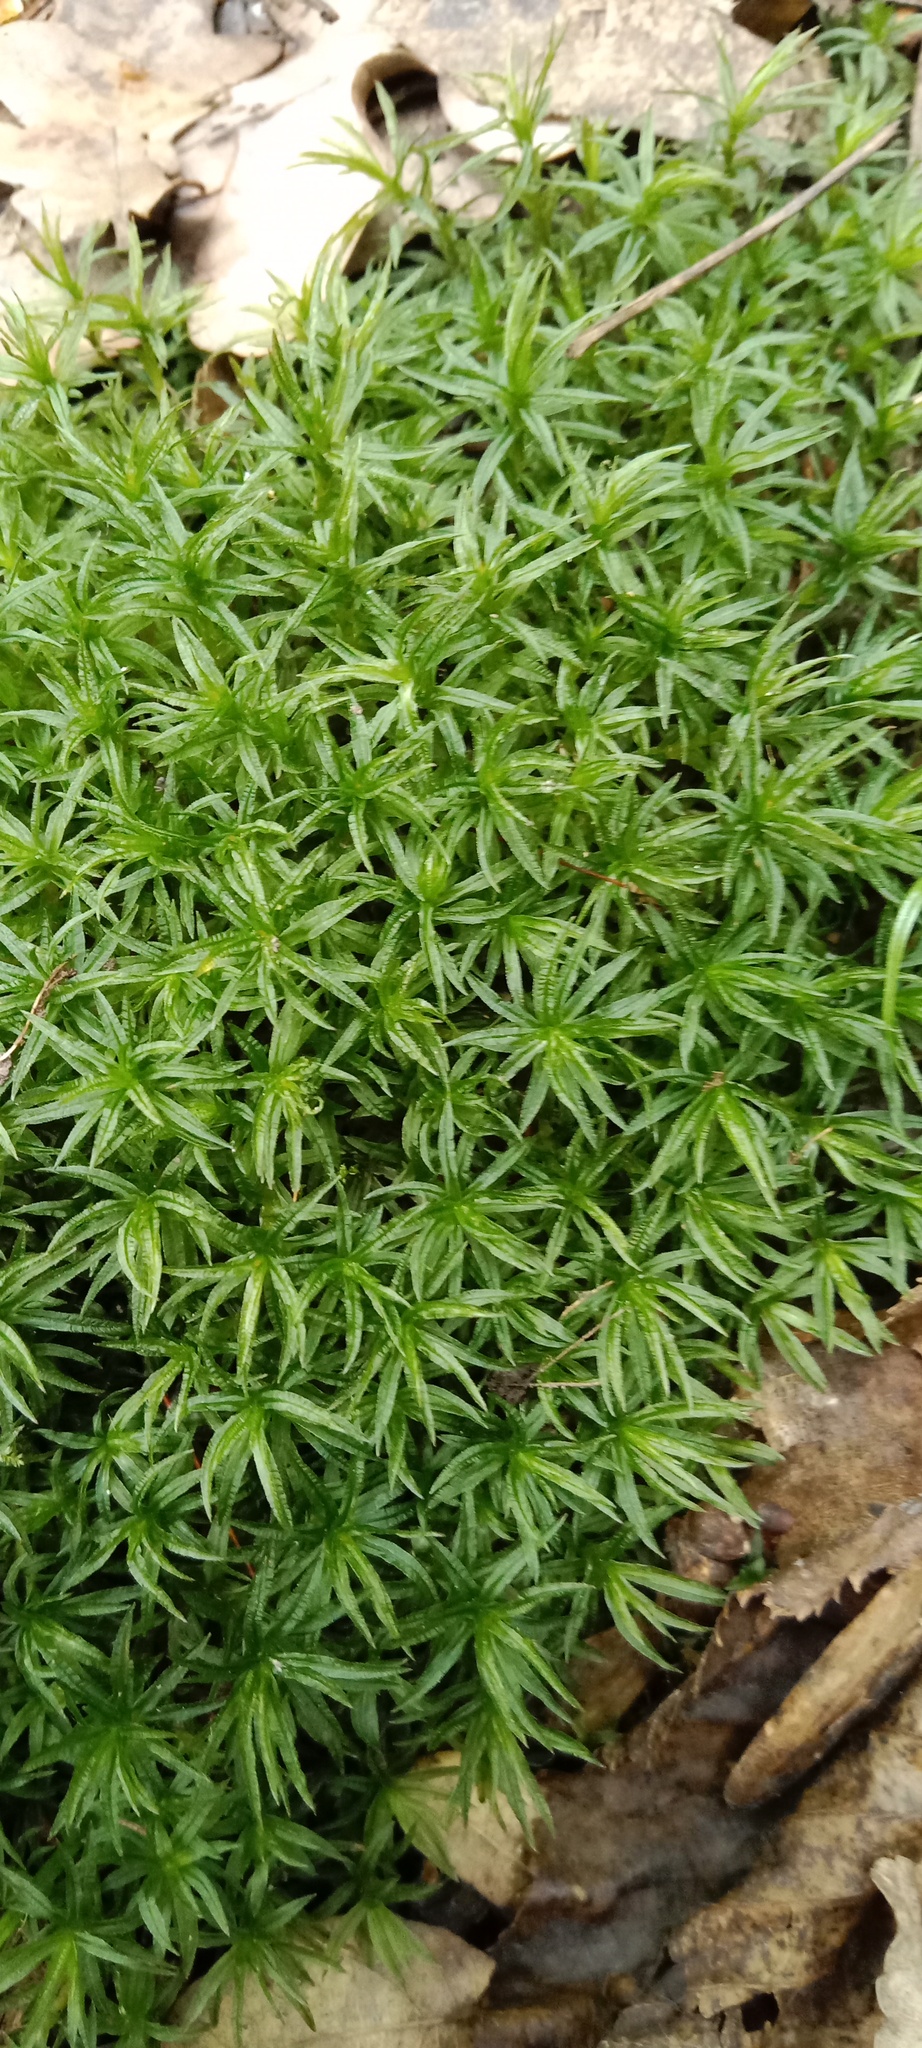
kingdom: Plantae
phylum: Bryophyta
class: Polytrichopsida
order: Polytrichales
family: Polytrichaceae
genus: Atrichum
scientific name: Atrichum undulatum
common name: Common smoothcap
